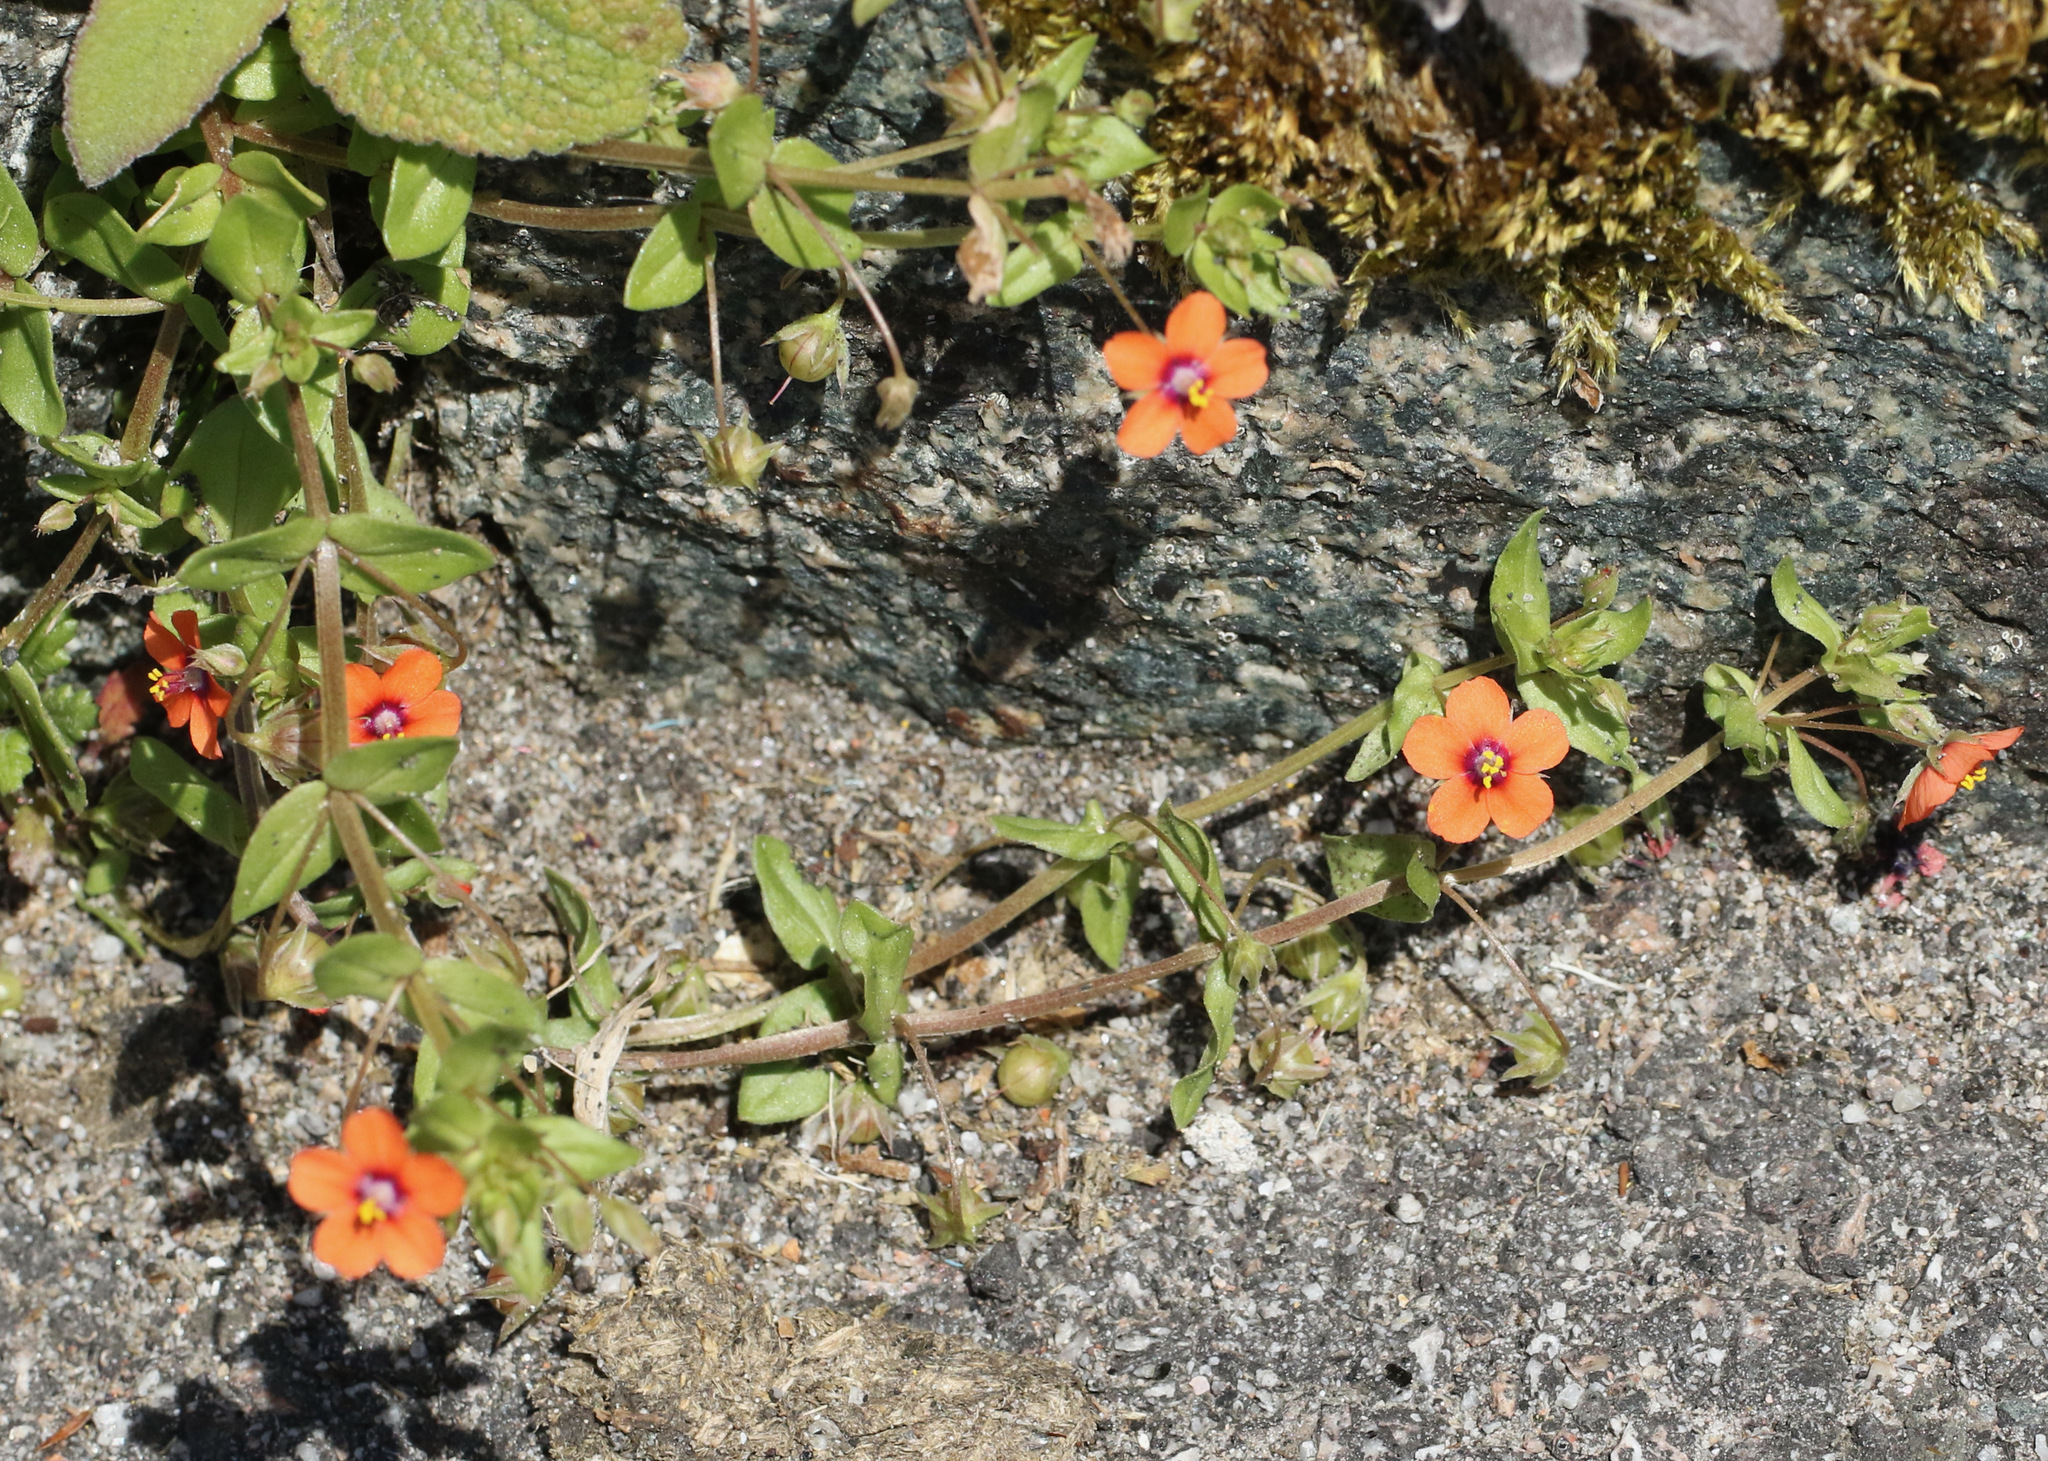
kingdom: Plantae
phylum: Tracheophyta
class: Magnoliopsida
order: Ericales
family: Primulaceae
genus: Lysimachia
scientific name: Lysimachia arvensis
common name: Scarlet pimpernel
